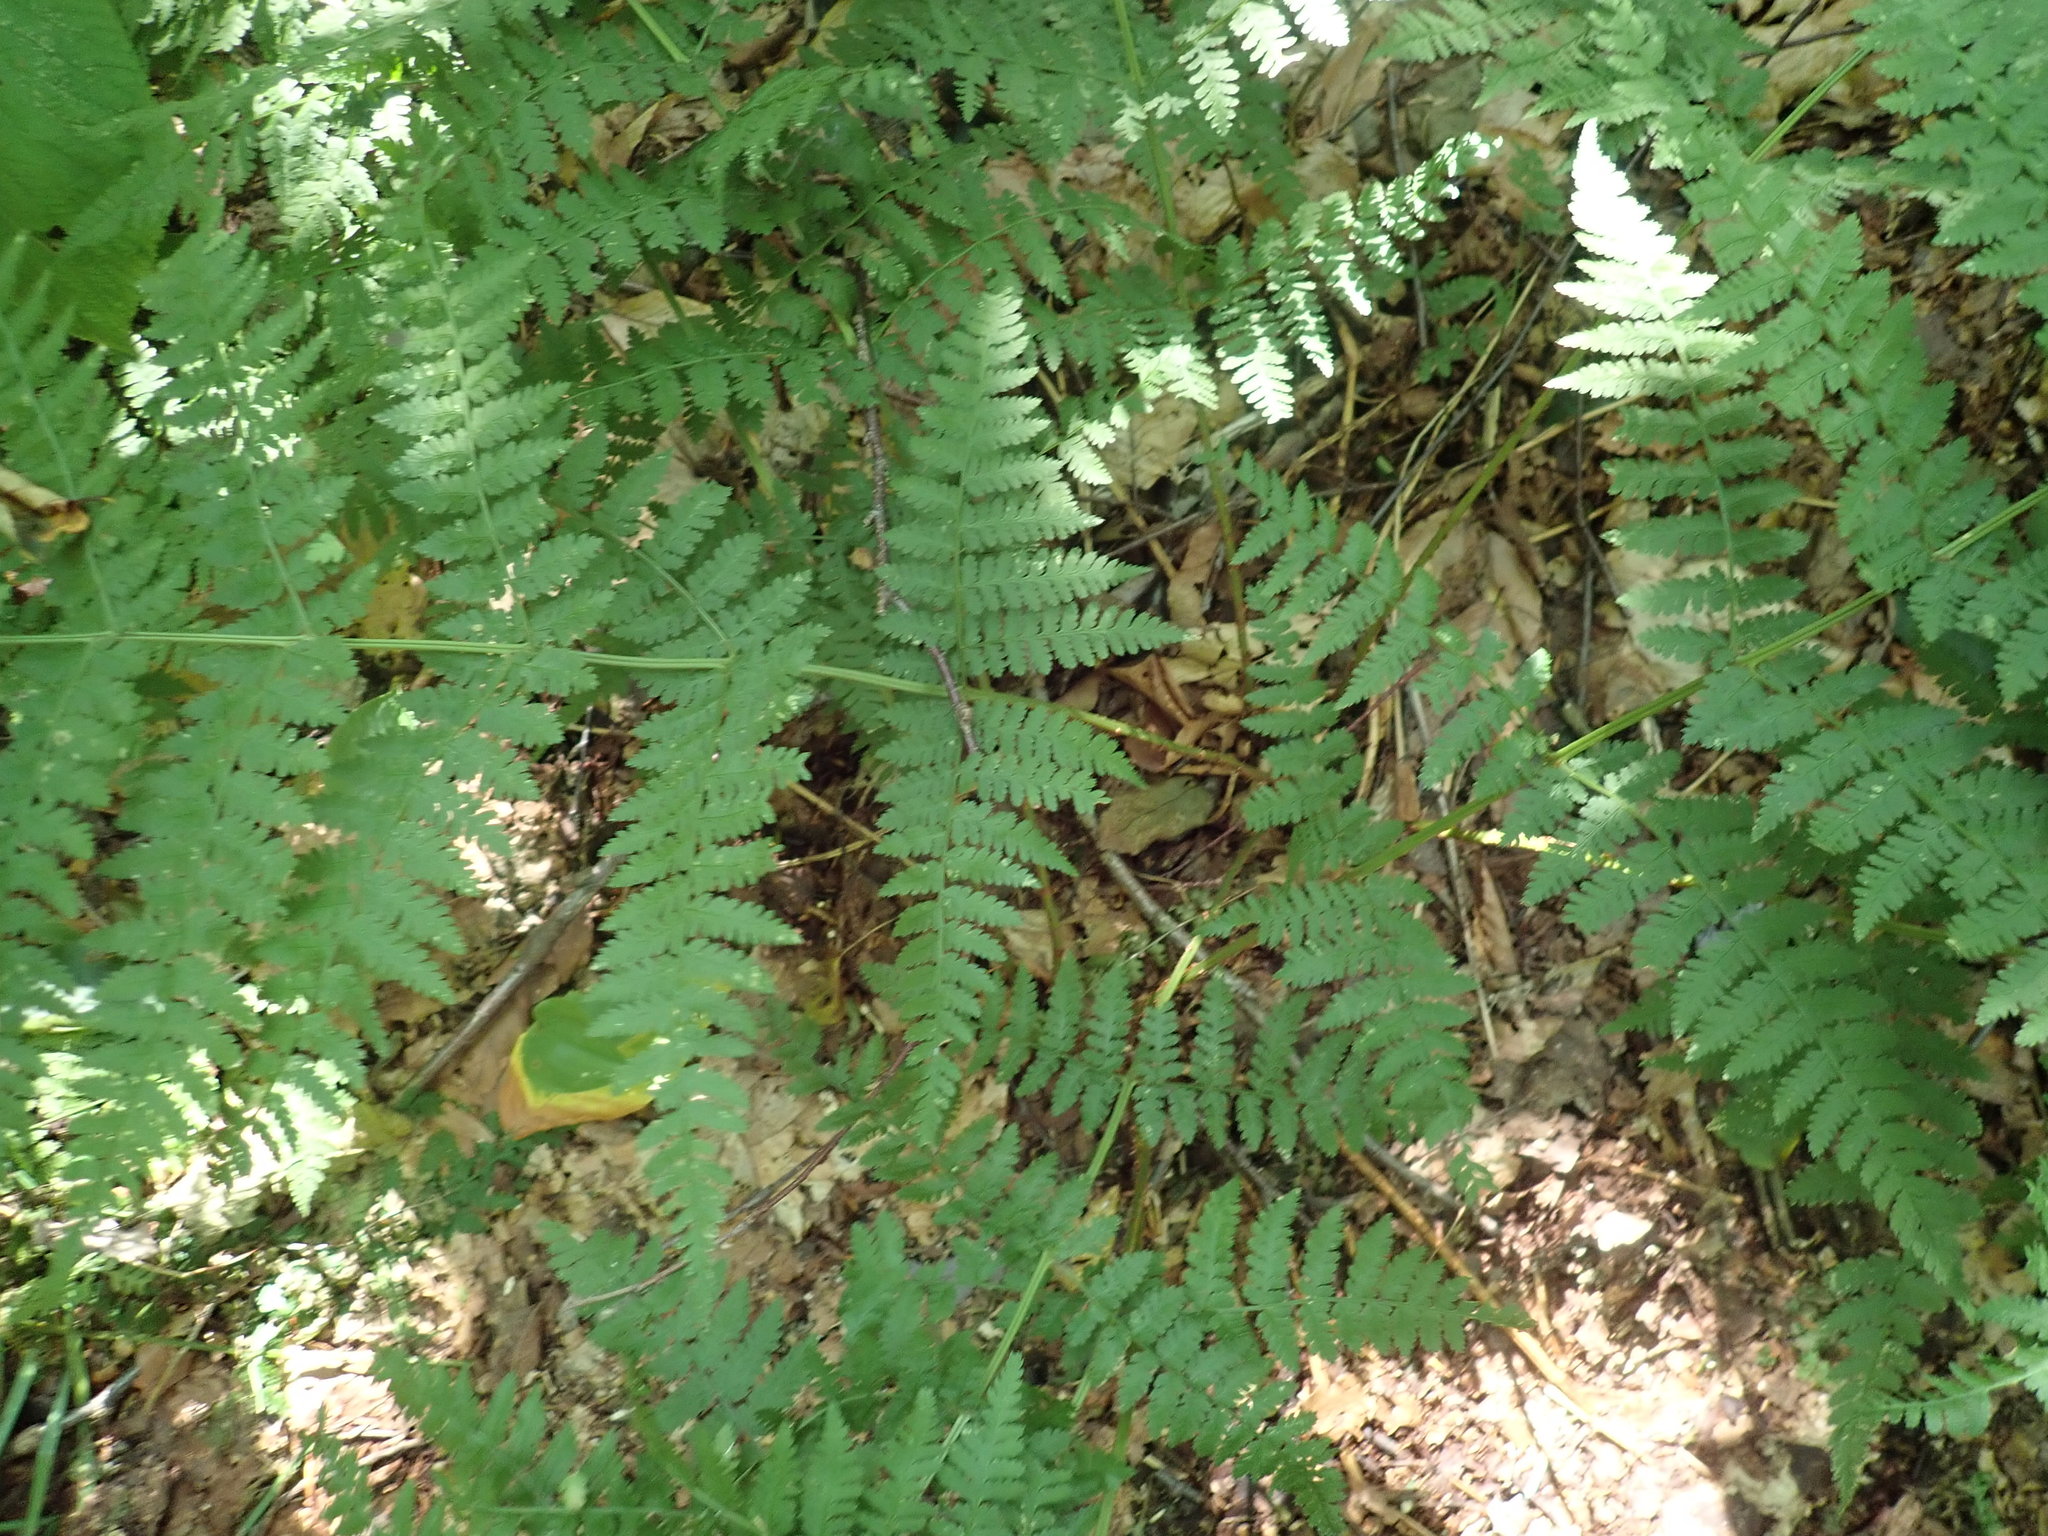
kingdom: Plantae
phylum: Tracheophyta
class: Polypodiopsida
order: Polypodiales
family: Dryopteridaceae
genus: Dryopteris
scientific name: Dryopteris campyloptera
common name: Mountain wood fern
